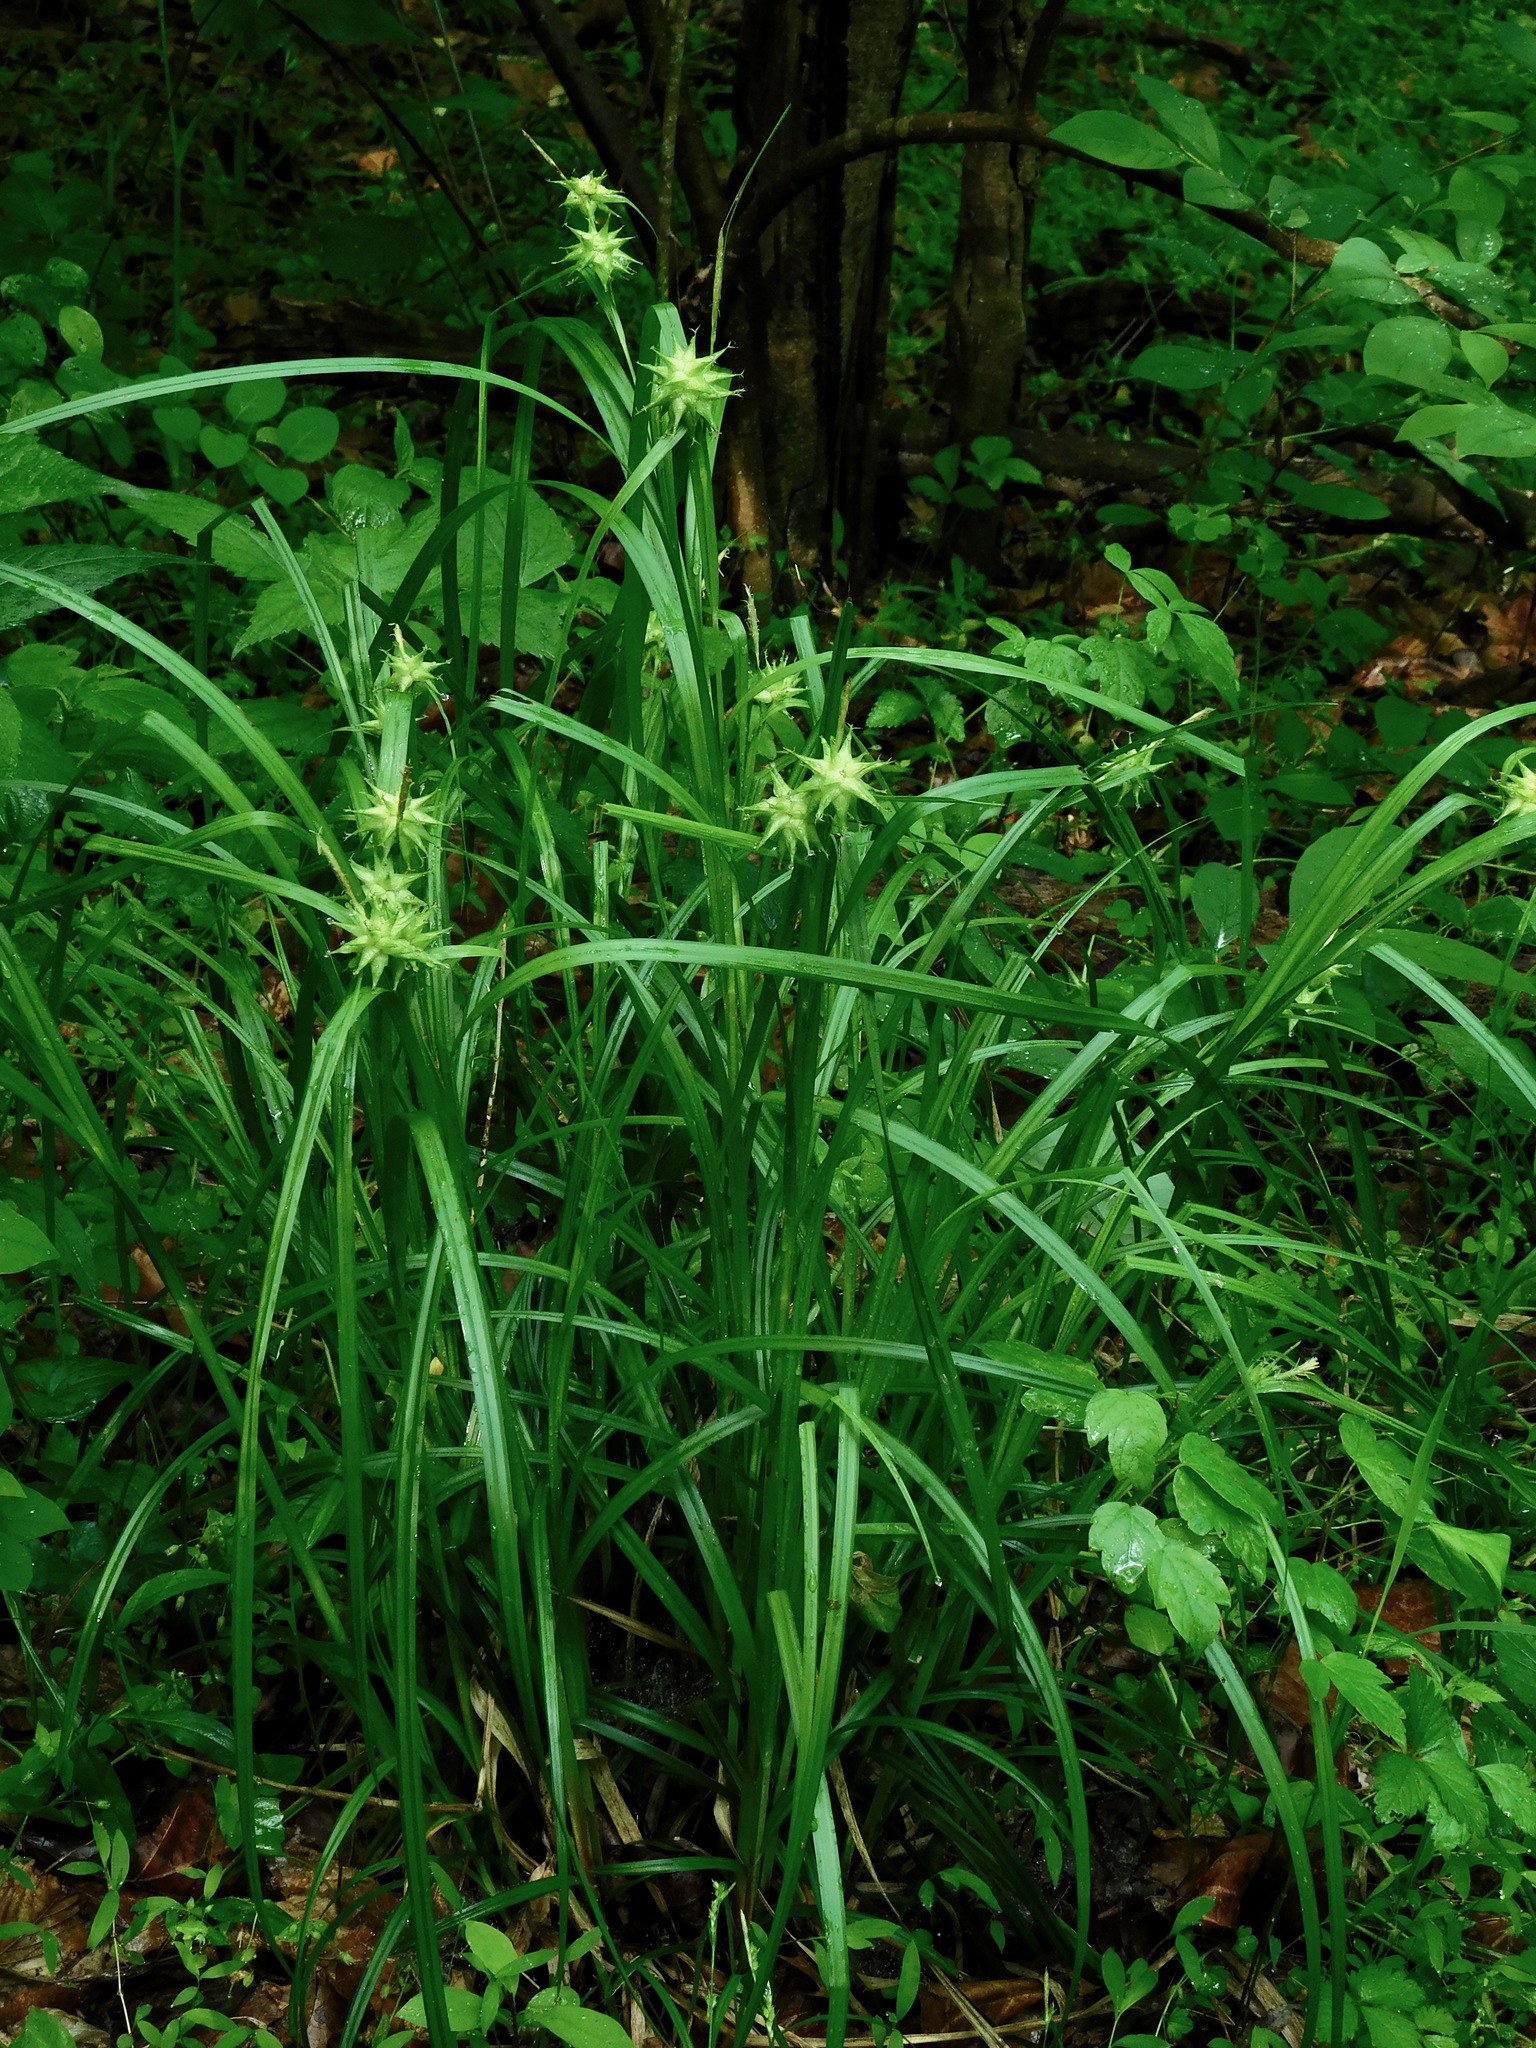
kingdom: Plantae
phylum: Tracheophyta
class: Liliopsida
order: Poales
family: Cyperaceae
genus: Carex
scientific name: Carex grayi
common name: Asa gray's sedge
